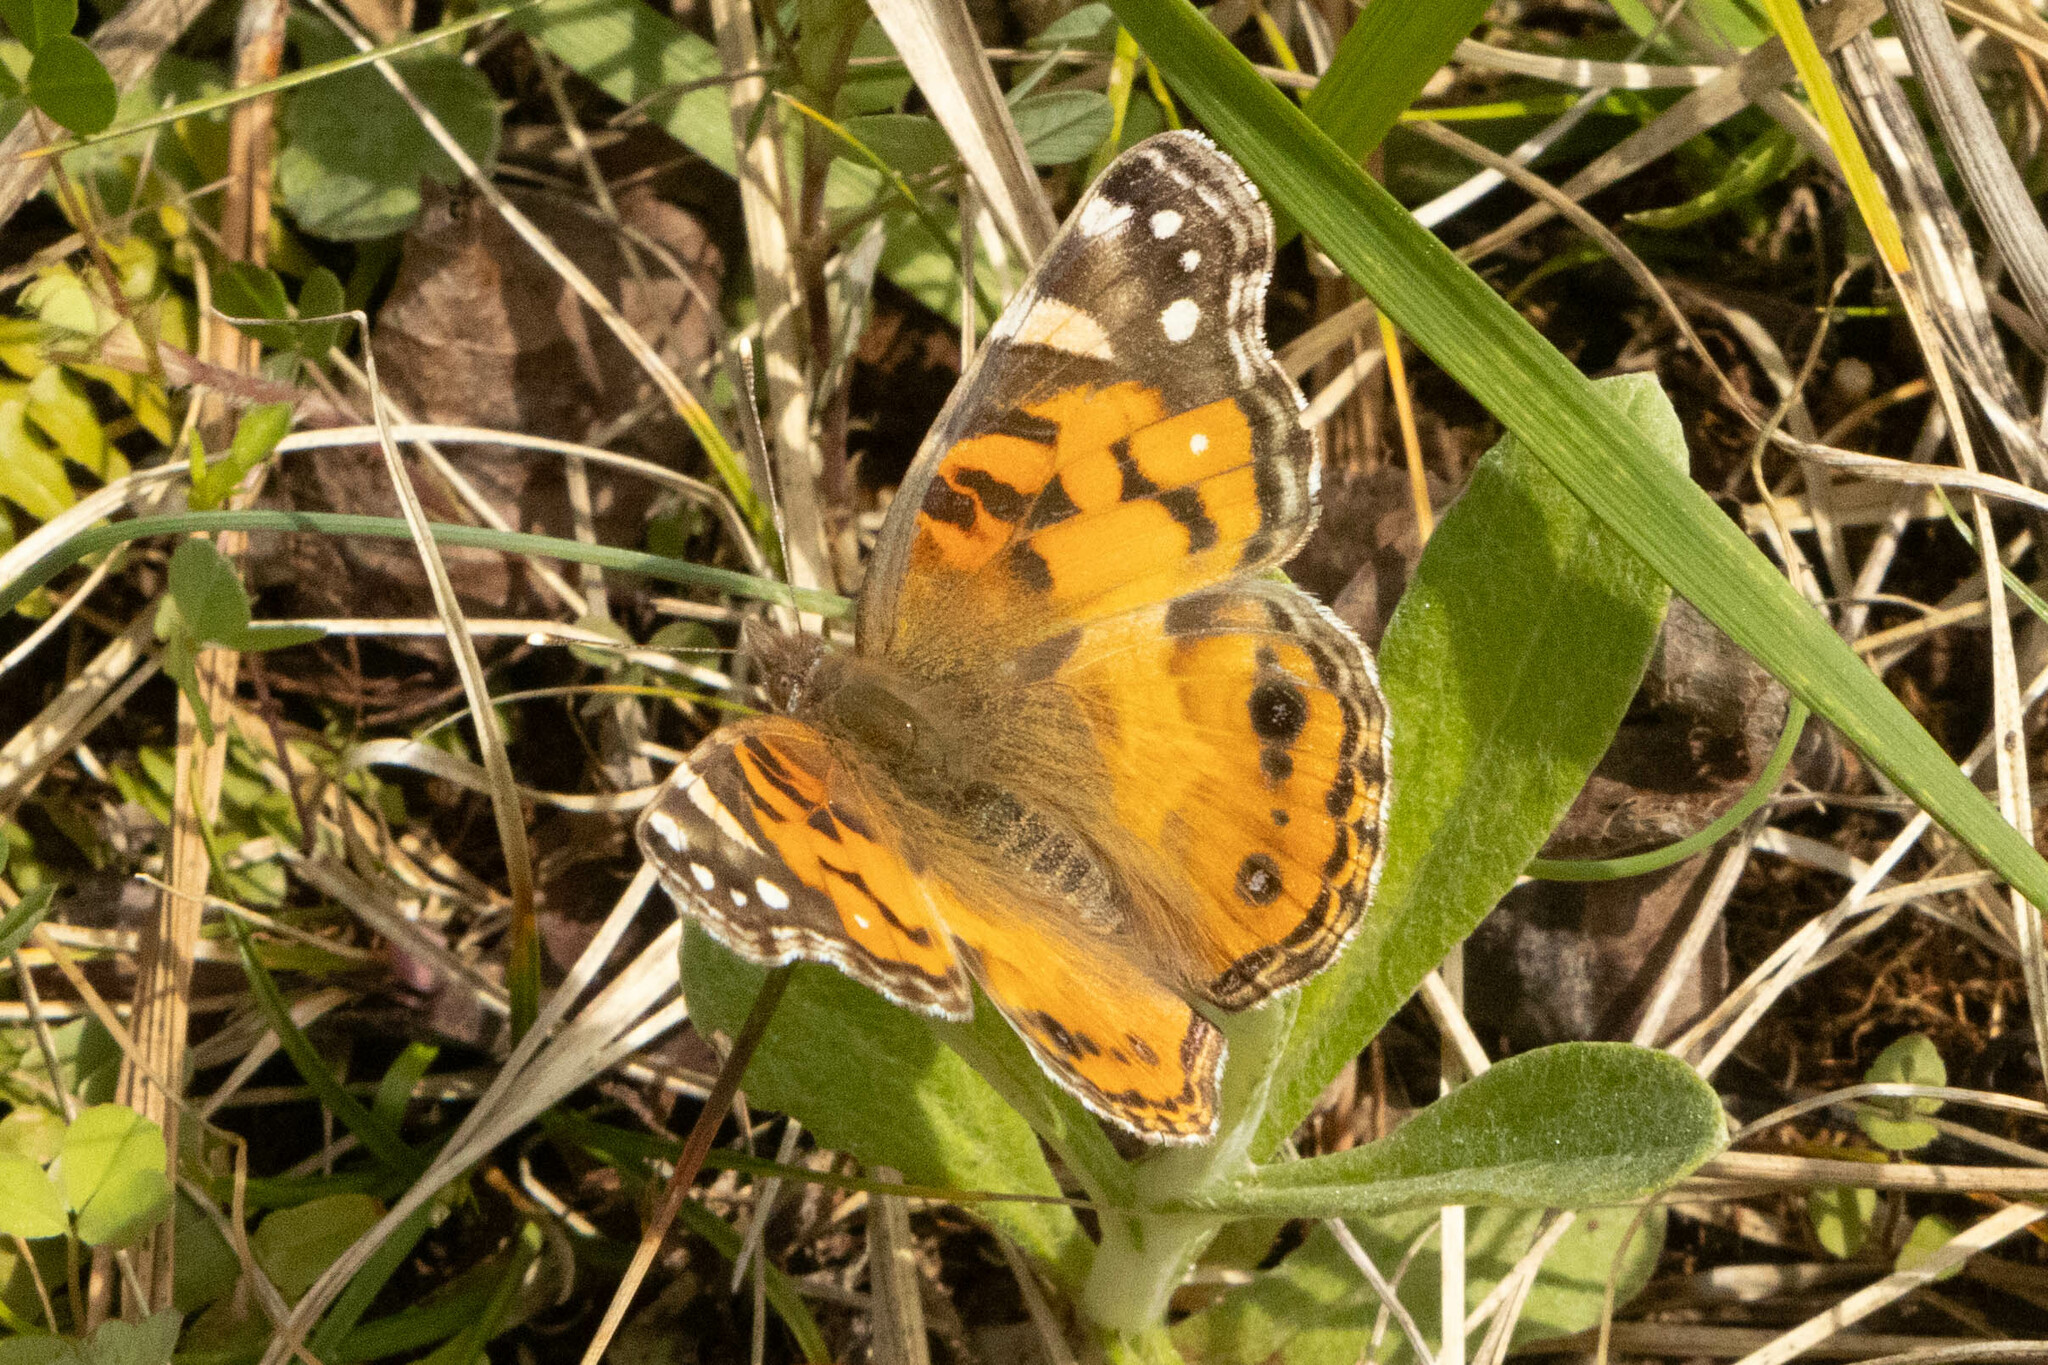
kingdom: Animalia
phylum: Arthropoda
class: Insecta
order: Lepidoptera
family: Nymphalidae
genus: Vanessa
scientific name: Vanessa virginiensis
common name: American lady
